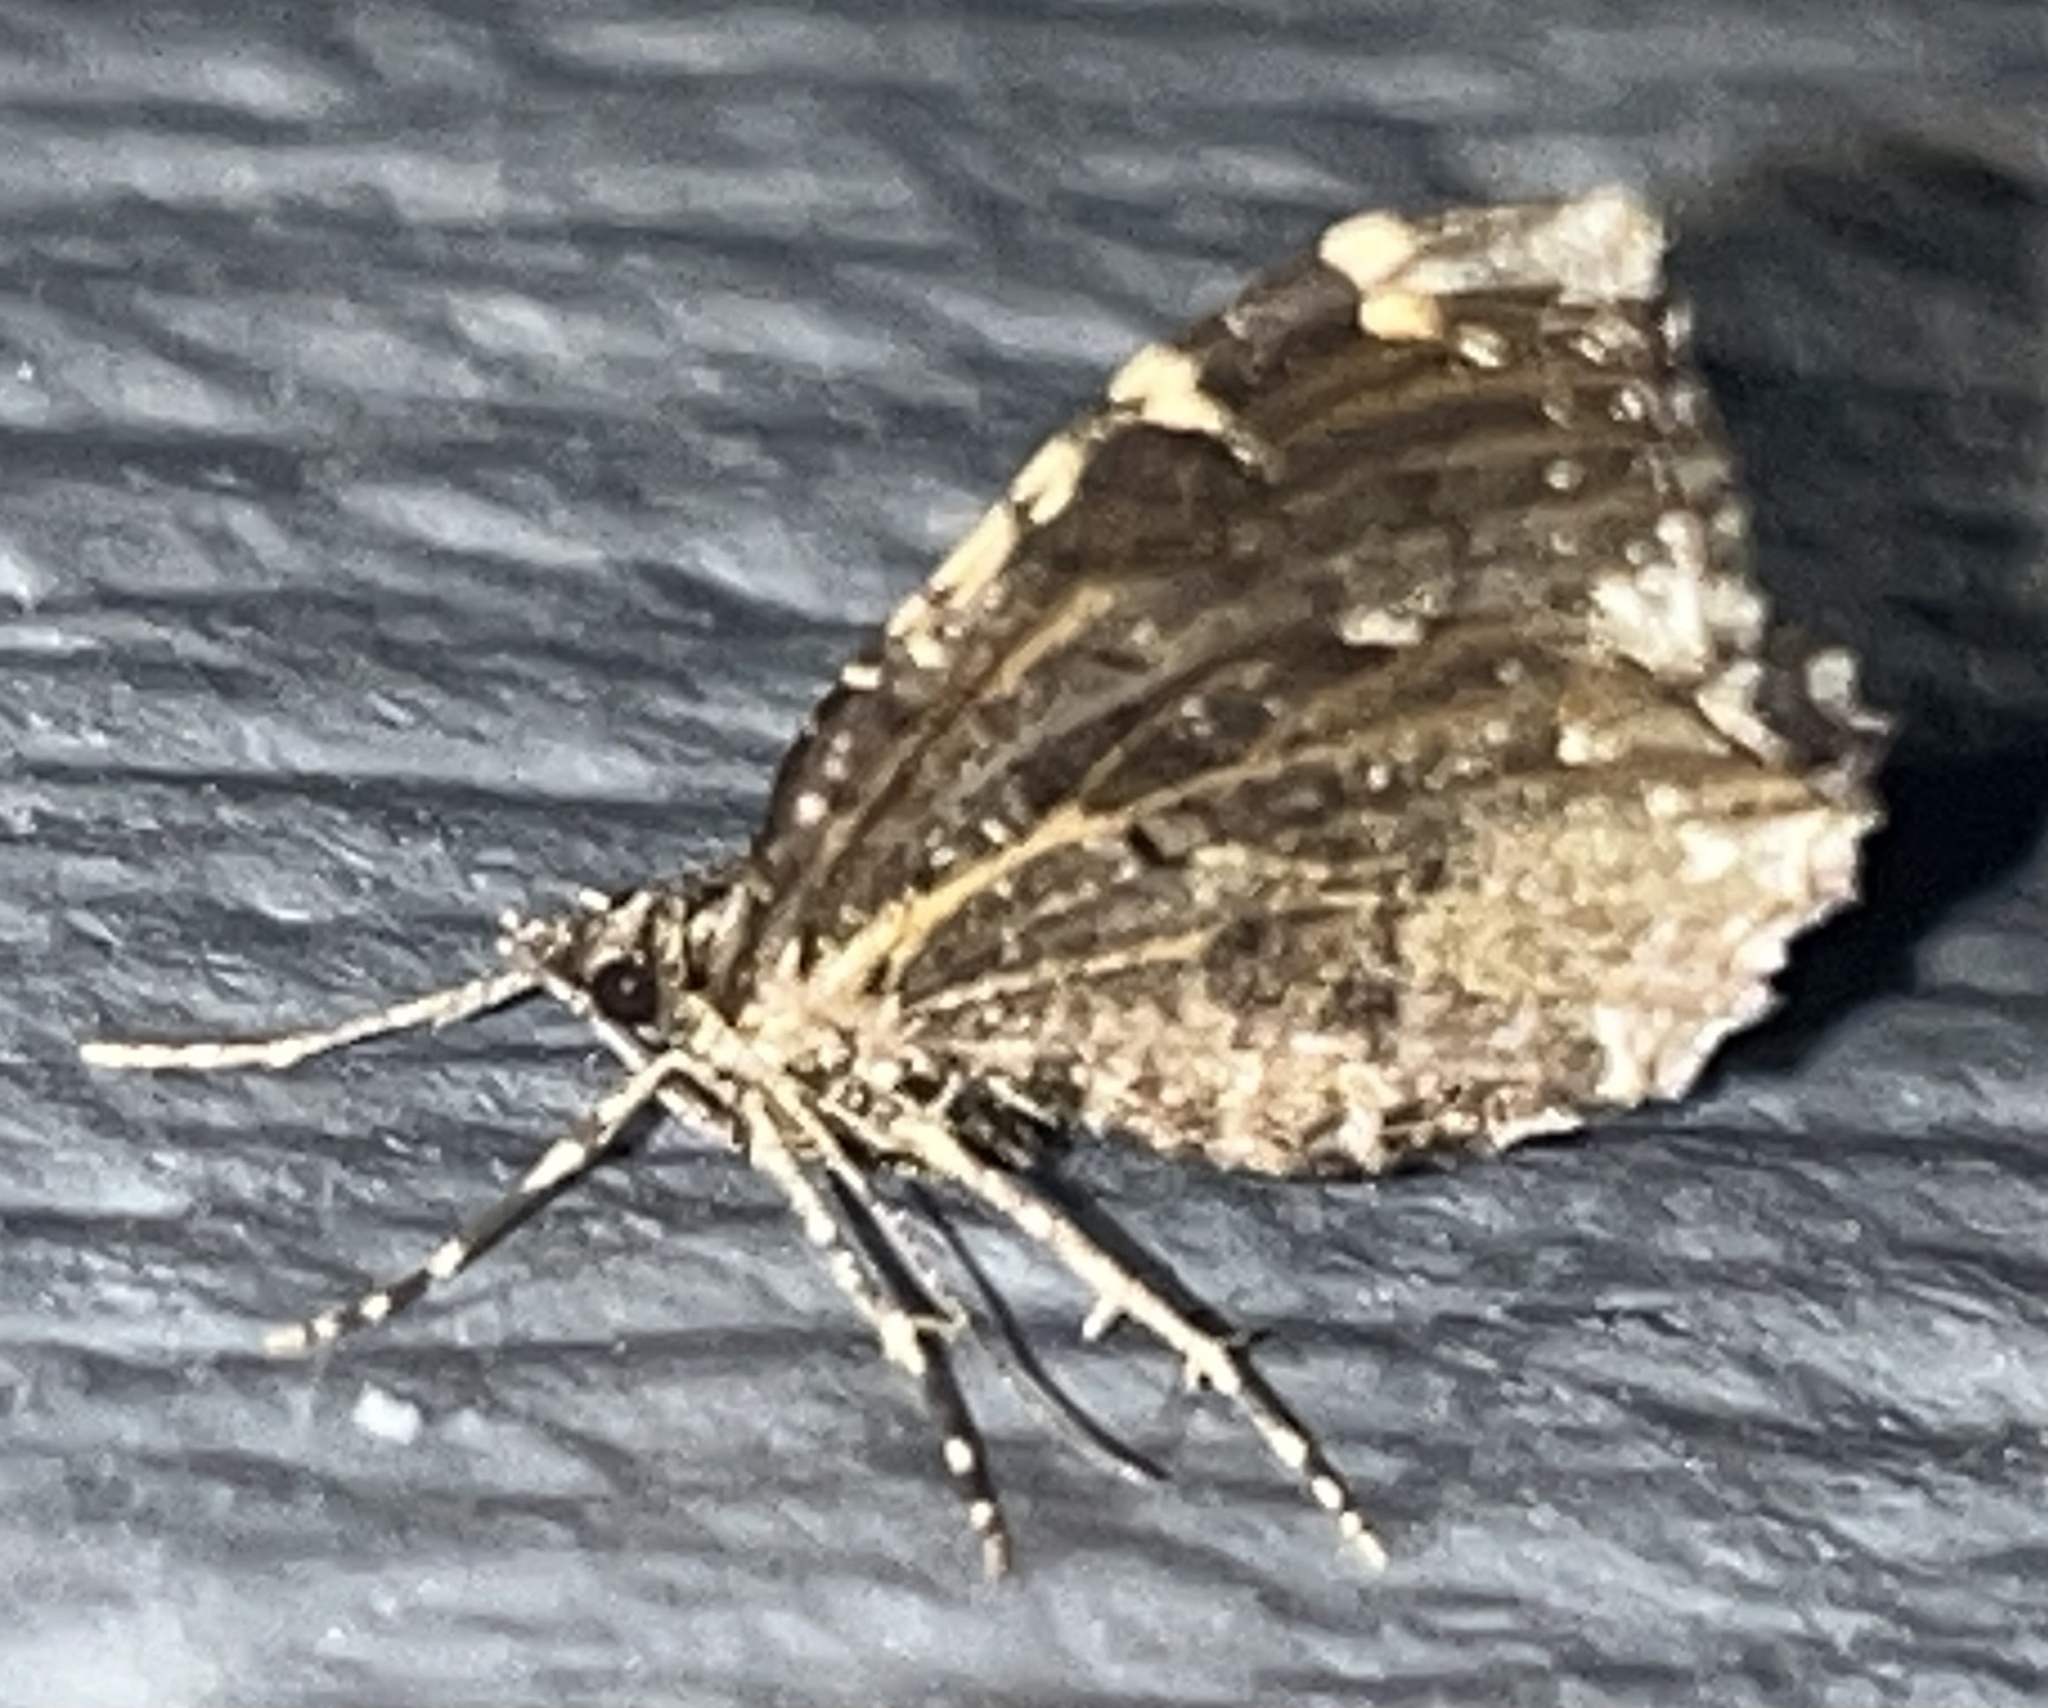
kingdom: Animalia
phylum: Arthropoda
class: Insecta
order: Lepidoptera
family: Geometridae
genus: Ceratodalia
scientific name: Ceratodalia gueneata
